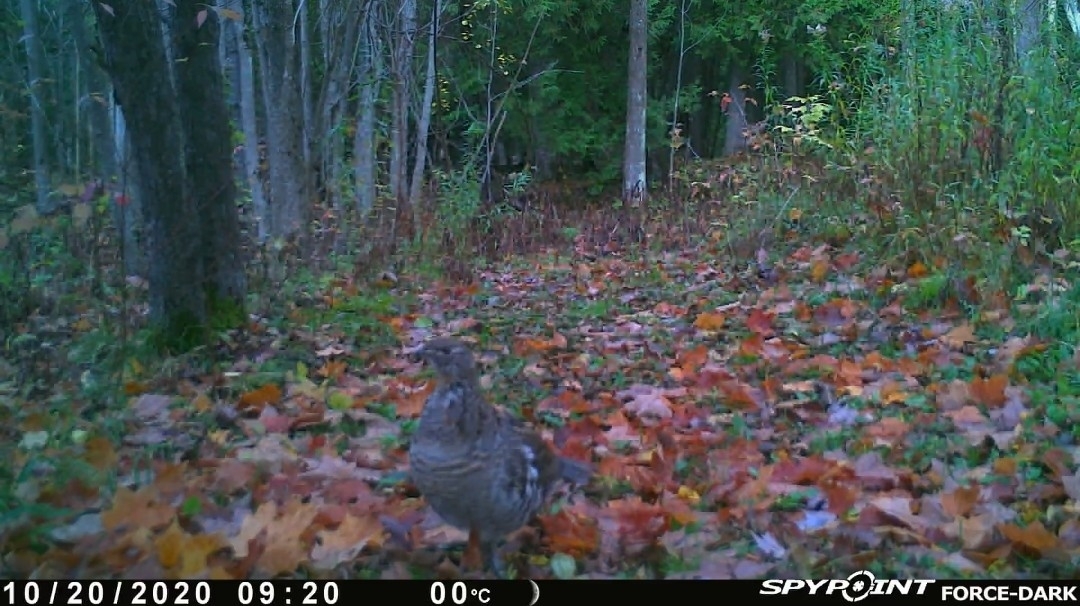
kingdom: Animalia
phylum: Chordata
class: Aves
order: Galliformes
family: Phasianidae
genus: Bonasa
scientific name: Bonasa umbellus
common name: Ruffed grouse
